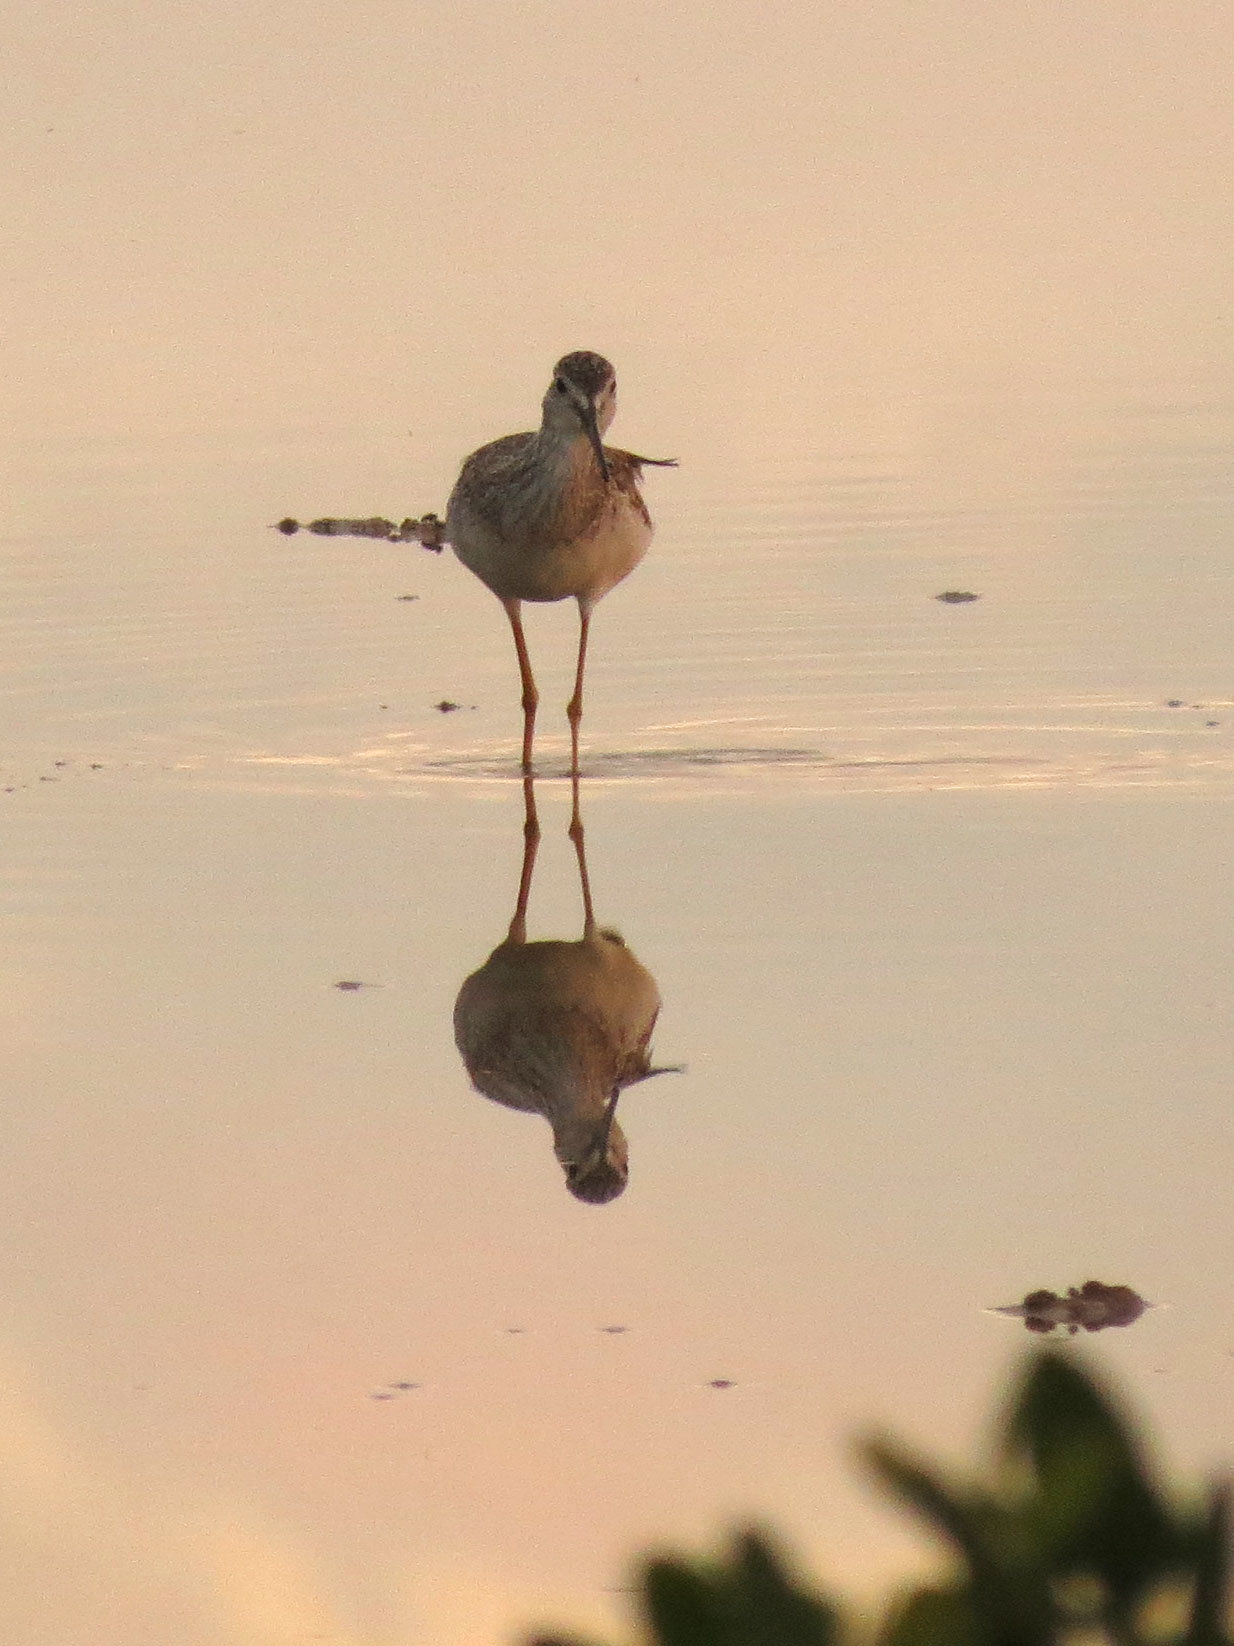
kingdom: Animalia
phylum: Chordata
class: Aves
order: Charadriiformes
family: Scolopacidae
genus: Tringa
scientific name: Tringa melanoleuca
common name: Greater yellowlegs
